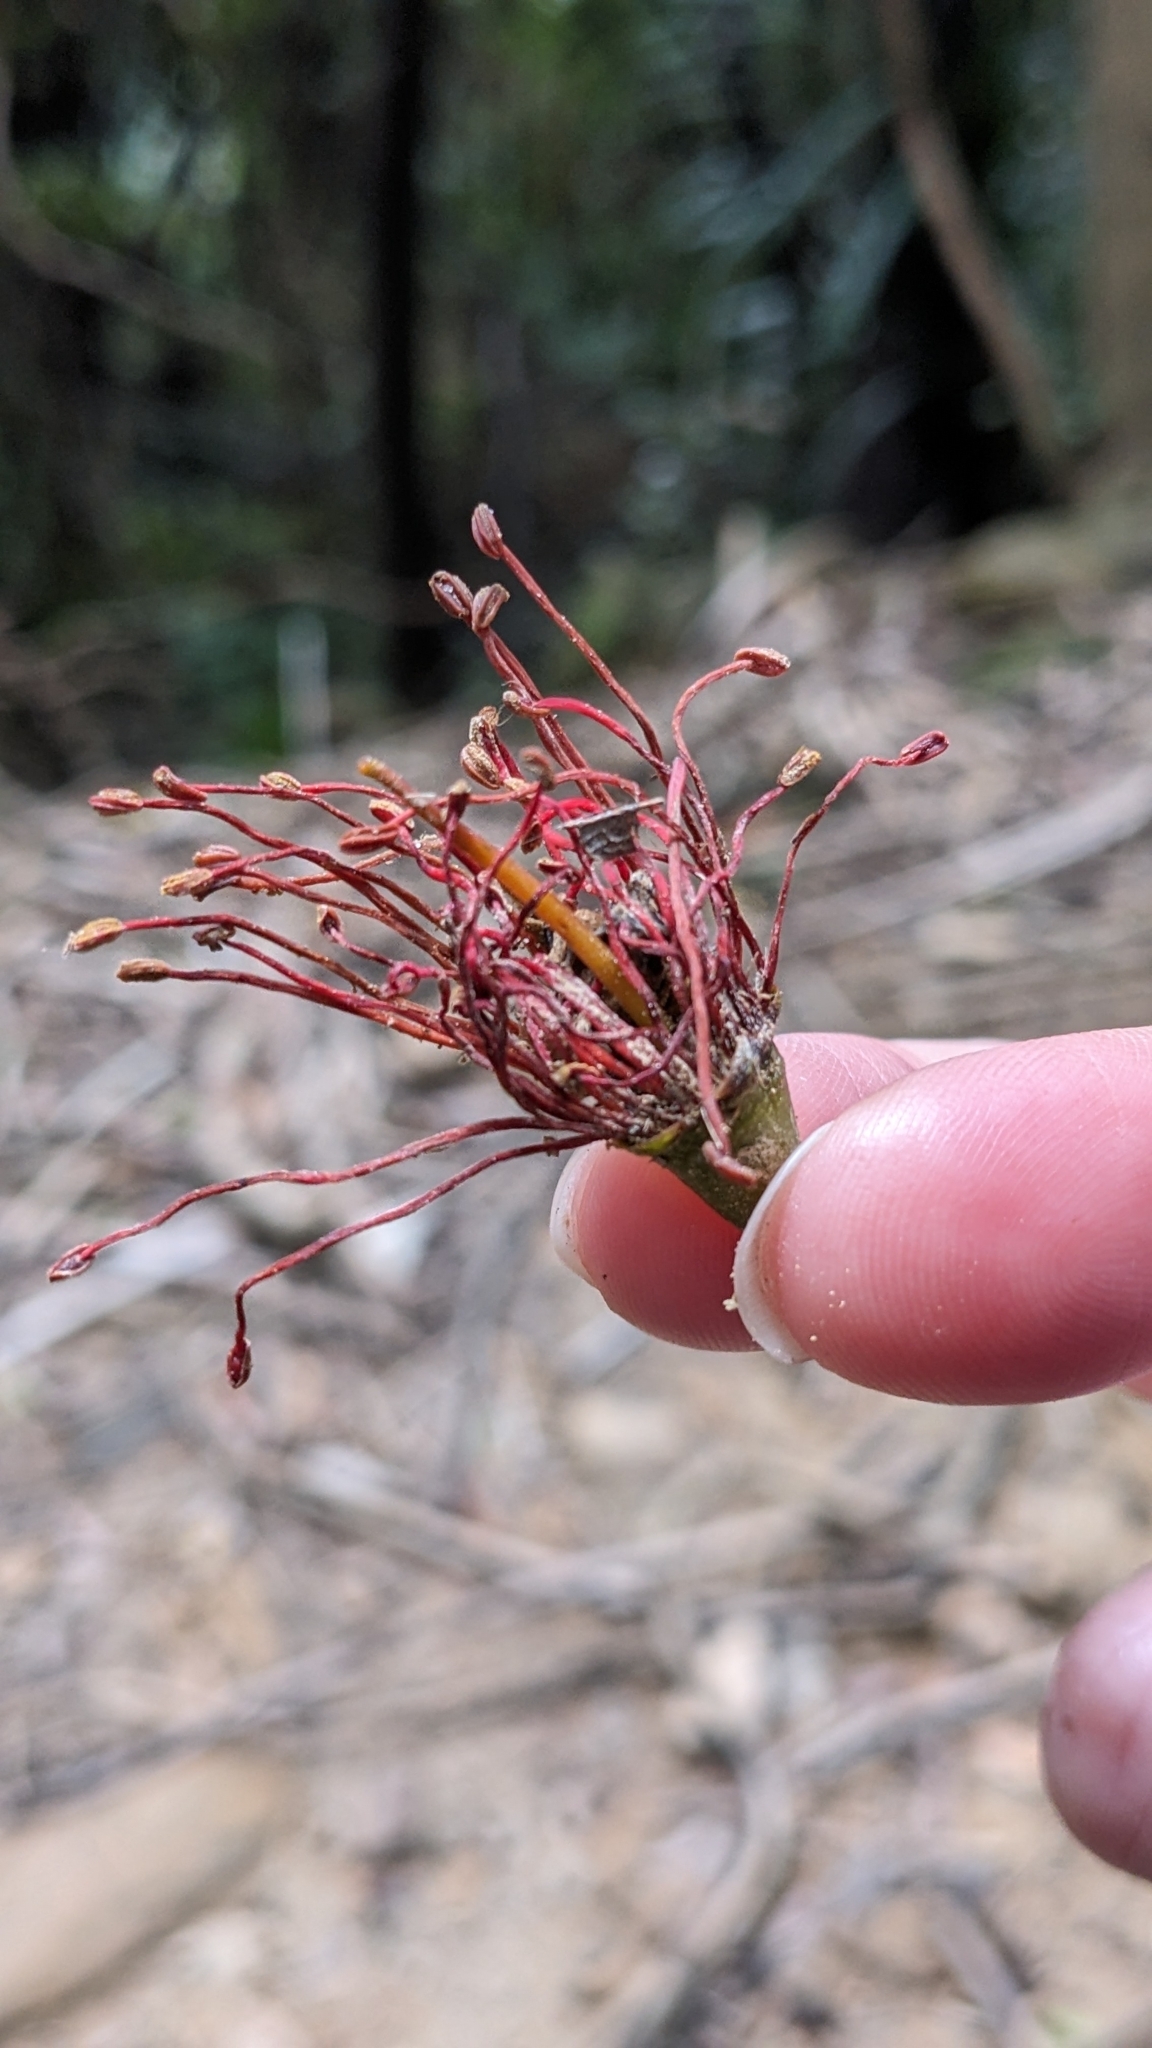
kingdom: Plantae
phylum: Tracheophyta
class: Magnoliopsida
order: Myrtales
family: Myrtaceae
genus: Metrosideros
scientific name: Metrosideros umbellata
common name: Southern rata
